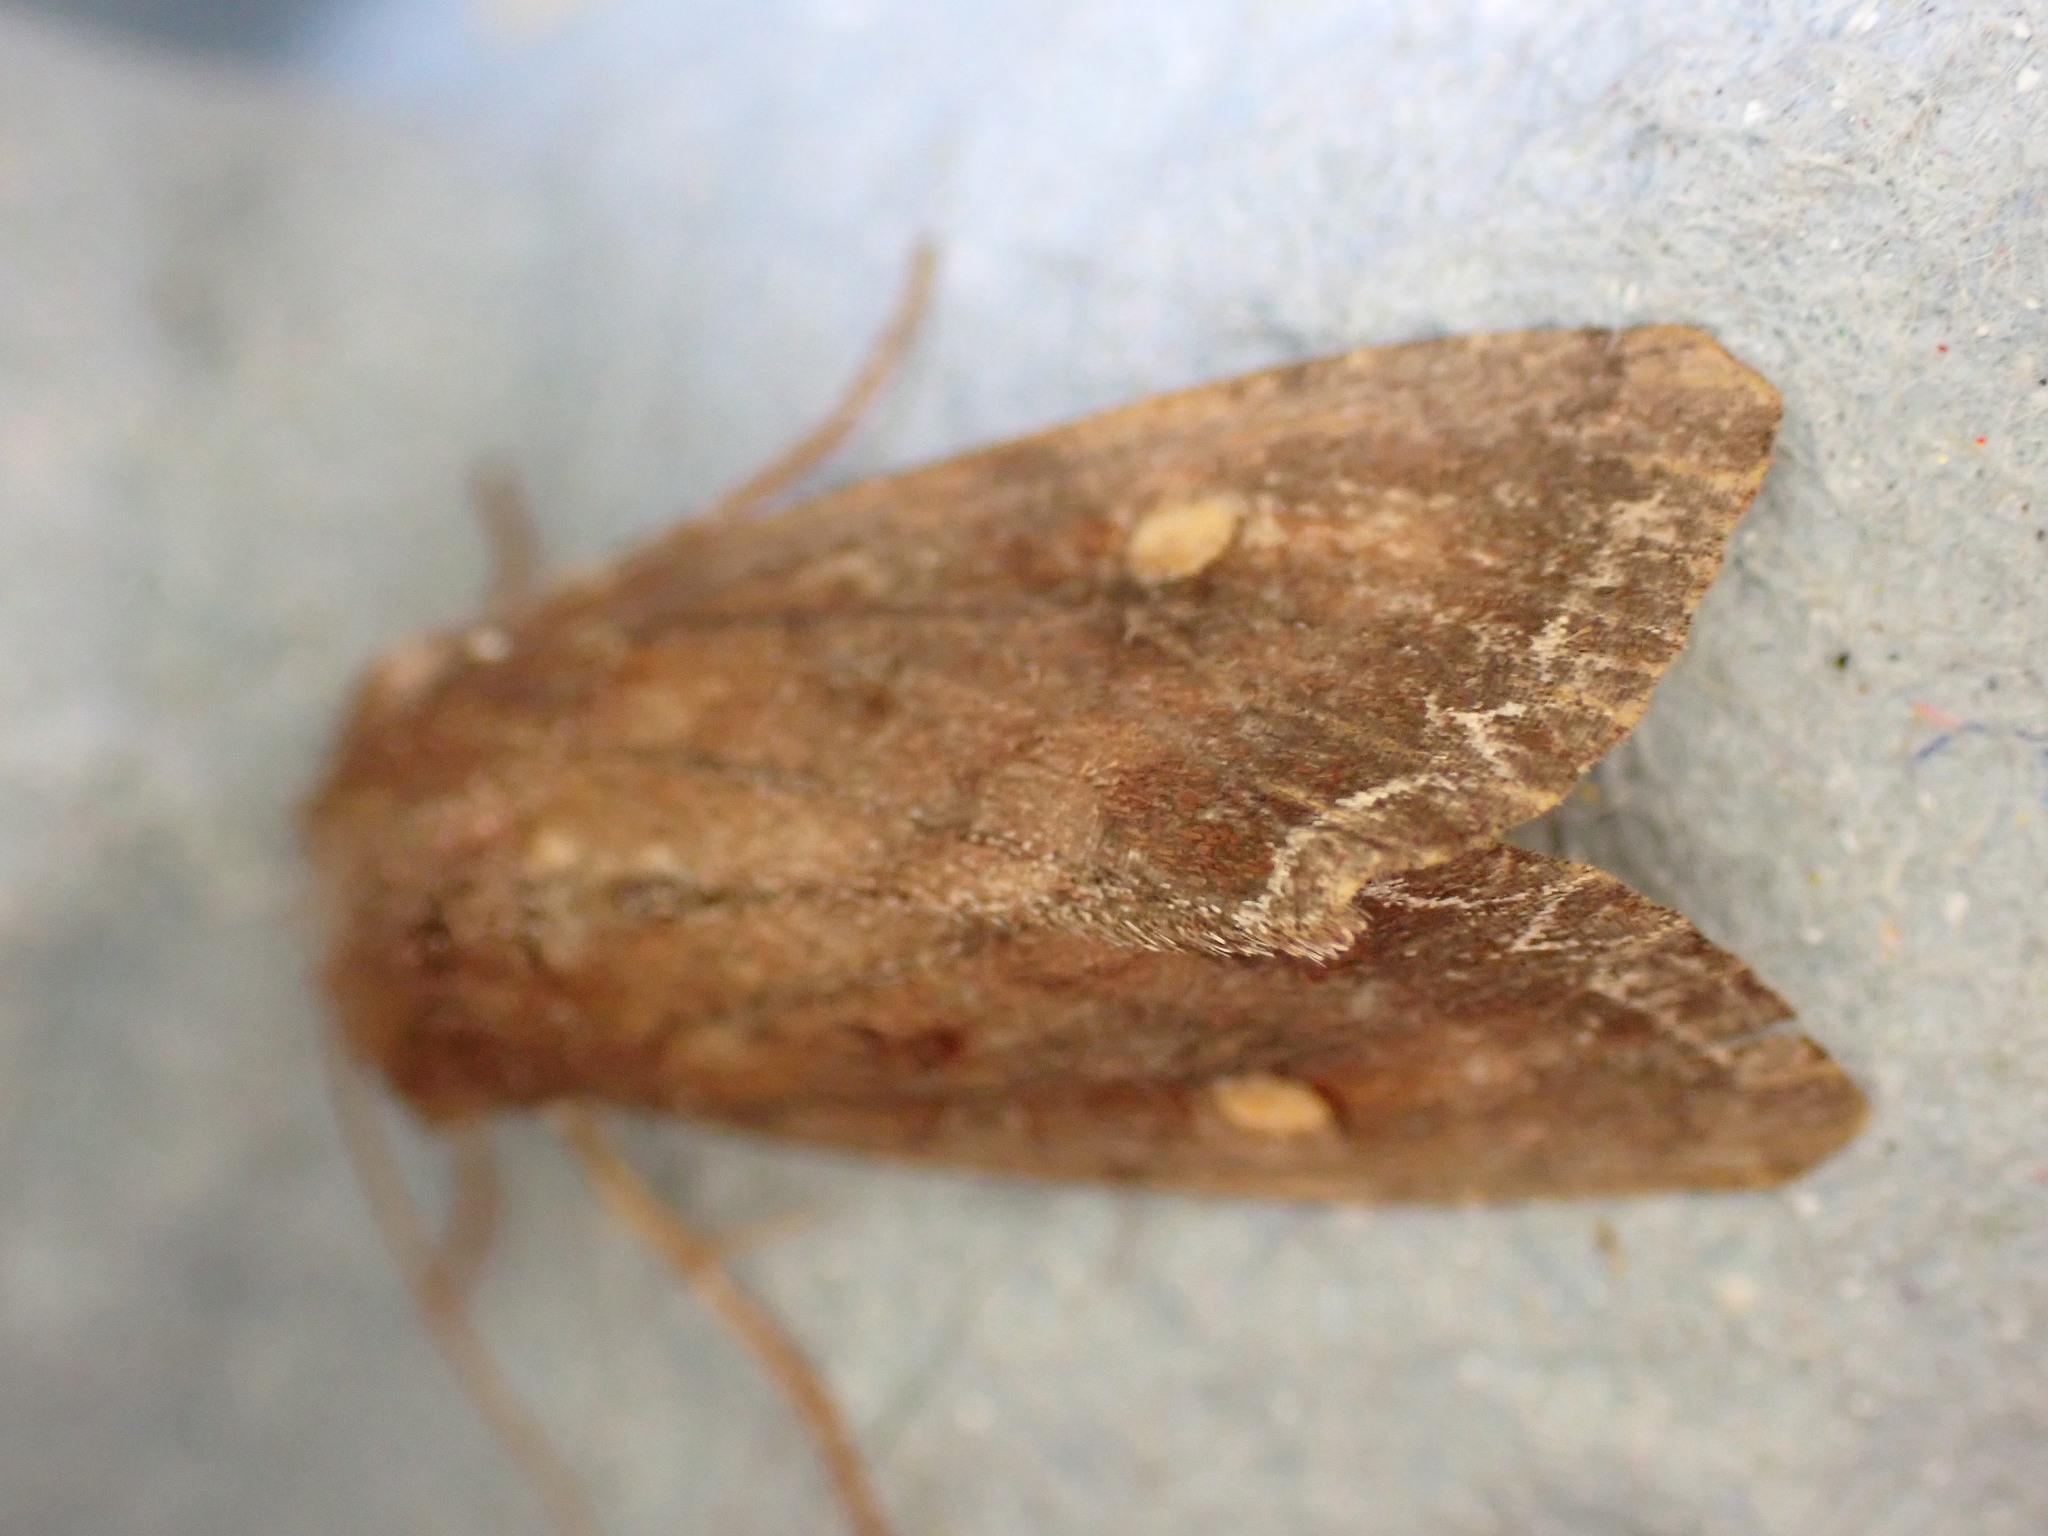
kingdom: Animalia
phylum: Arthropoda
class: Insecta
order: Lepidoptera
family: Noctuidae
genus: Lacanobia
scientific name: Lacanobia oleracea
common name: Bright-line brown-eye
